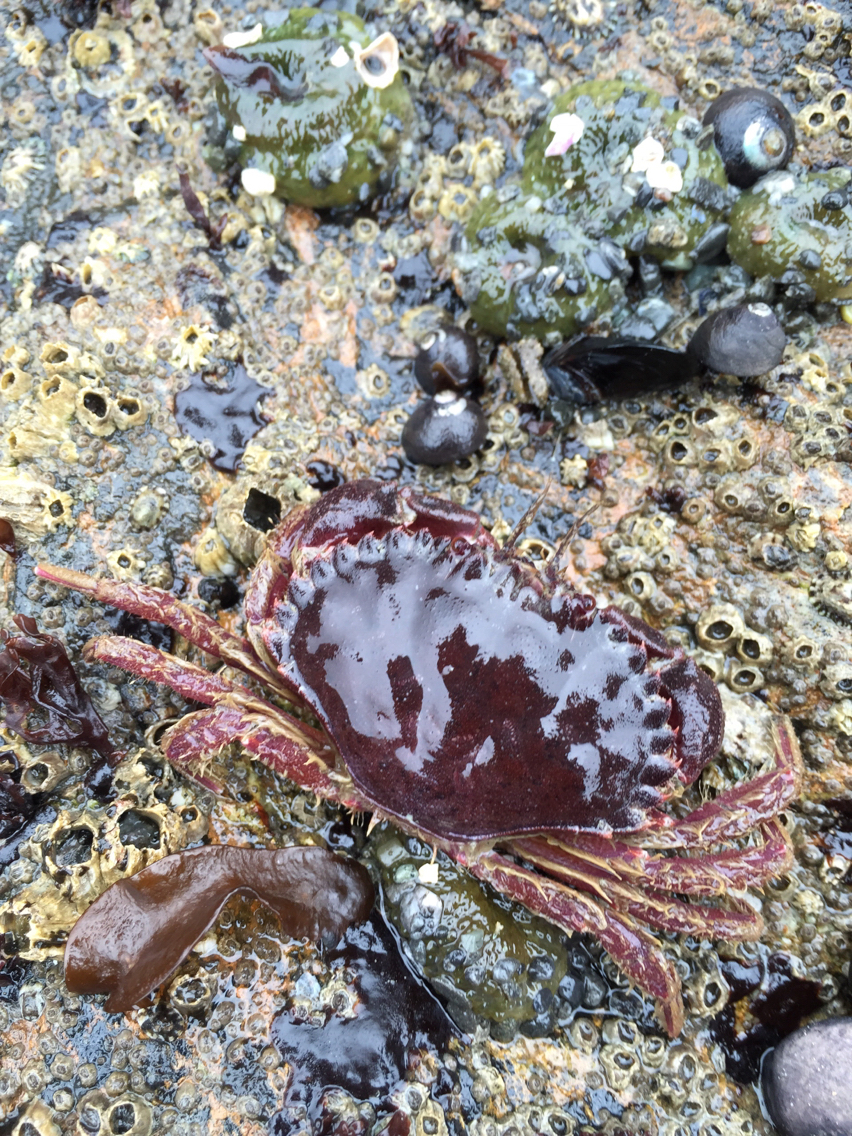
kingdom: Animalia
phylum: Arthropoda
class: Malacostraca
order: Decapoda
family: Cancridae
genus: Romaleon
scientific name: Romaleon antennarium
